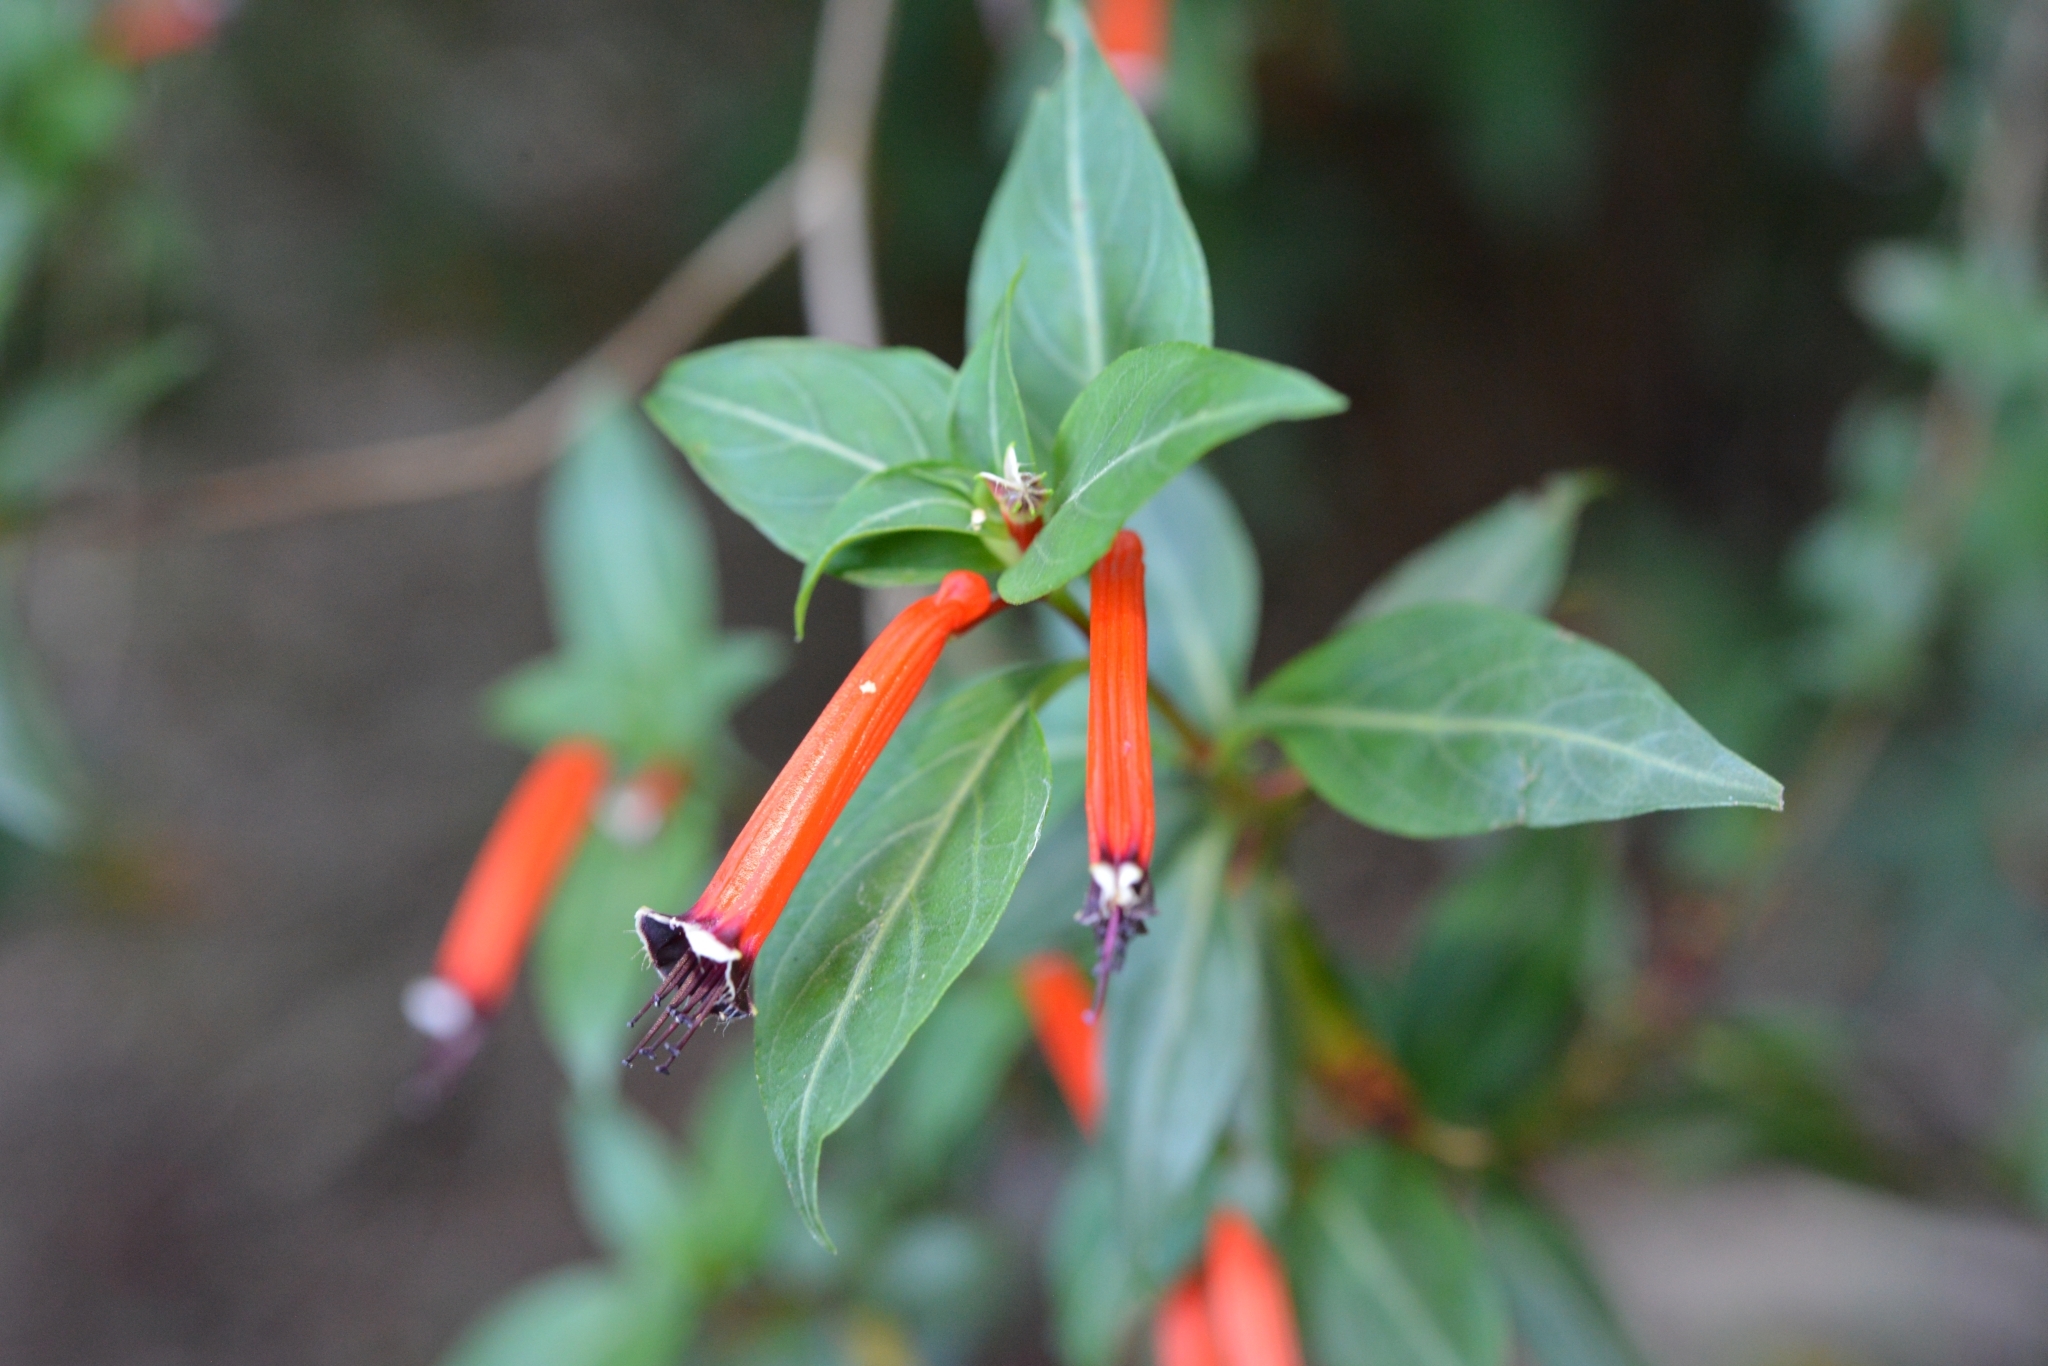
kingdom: Plantae
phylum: Tracheophyta
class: Magnoliopsida
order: Myrtales
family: Lythraceae
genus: Cuphea
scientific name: Cuphea ignea
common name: Cigar flower
